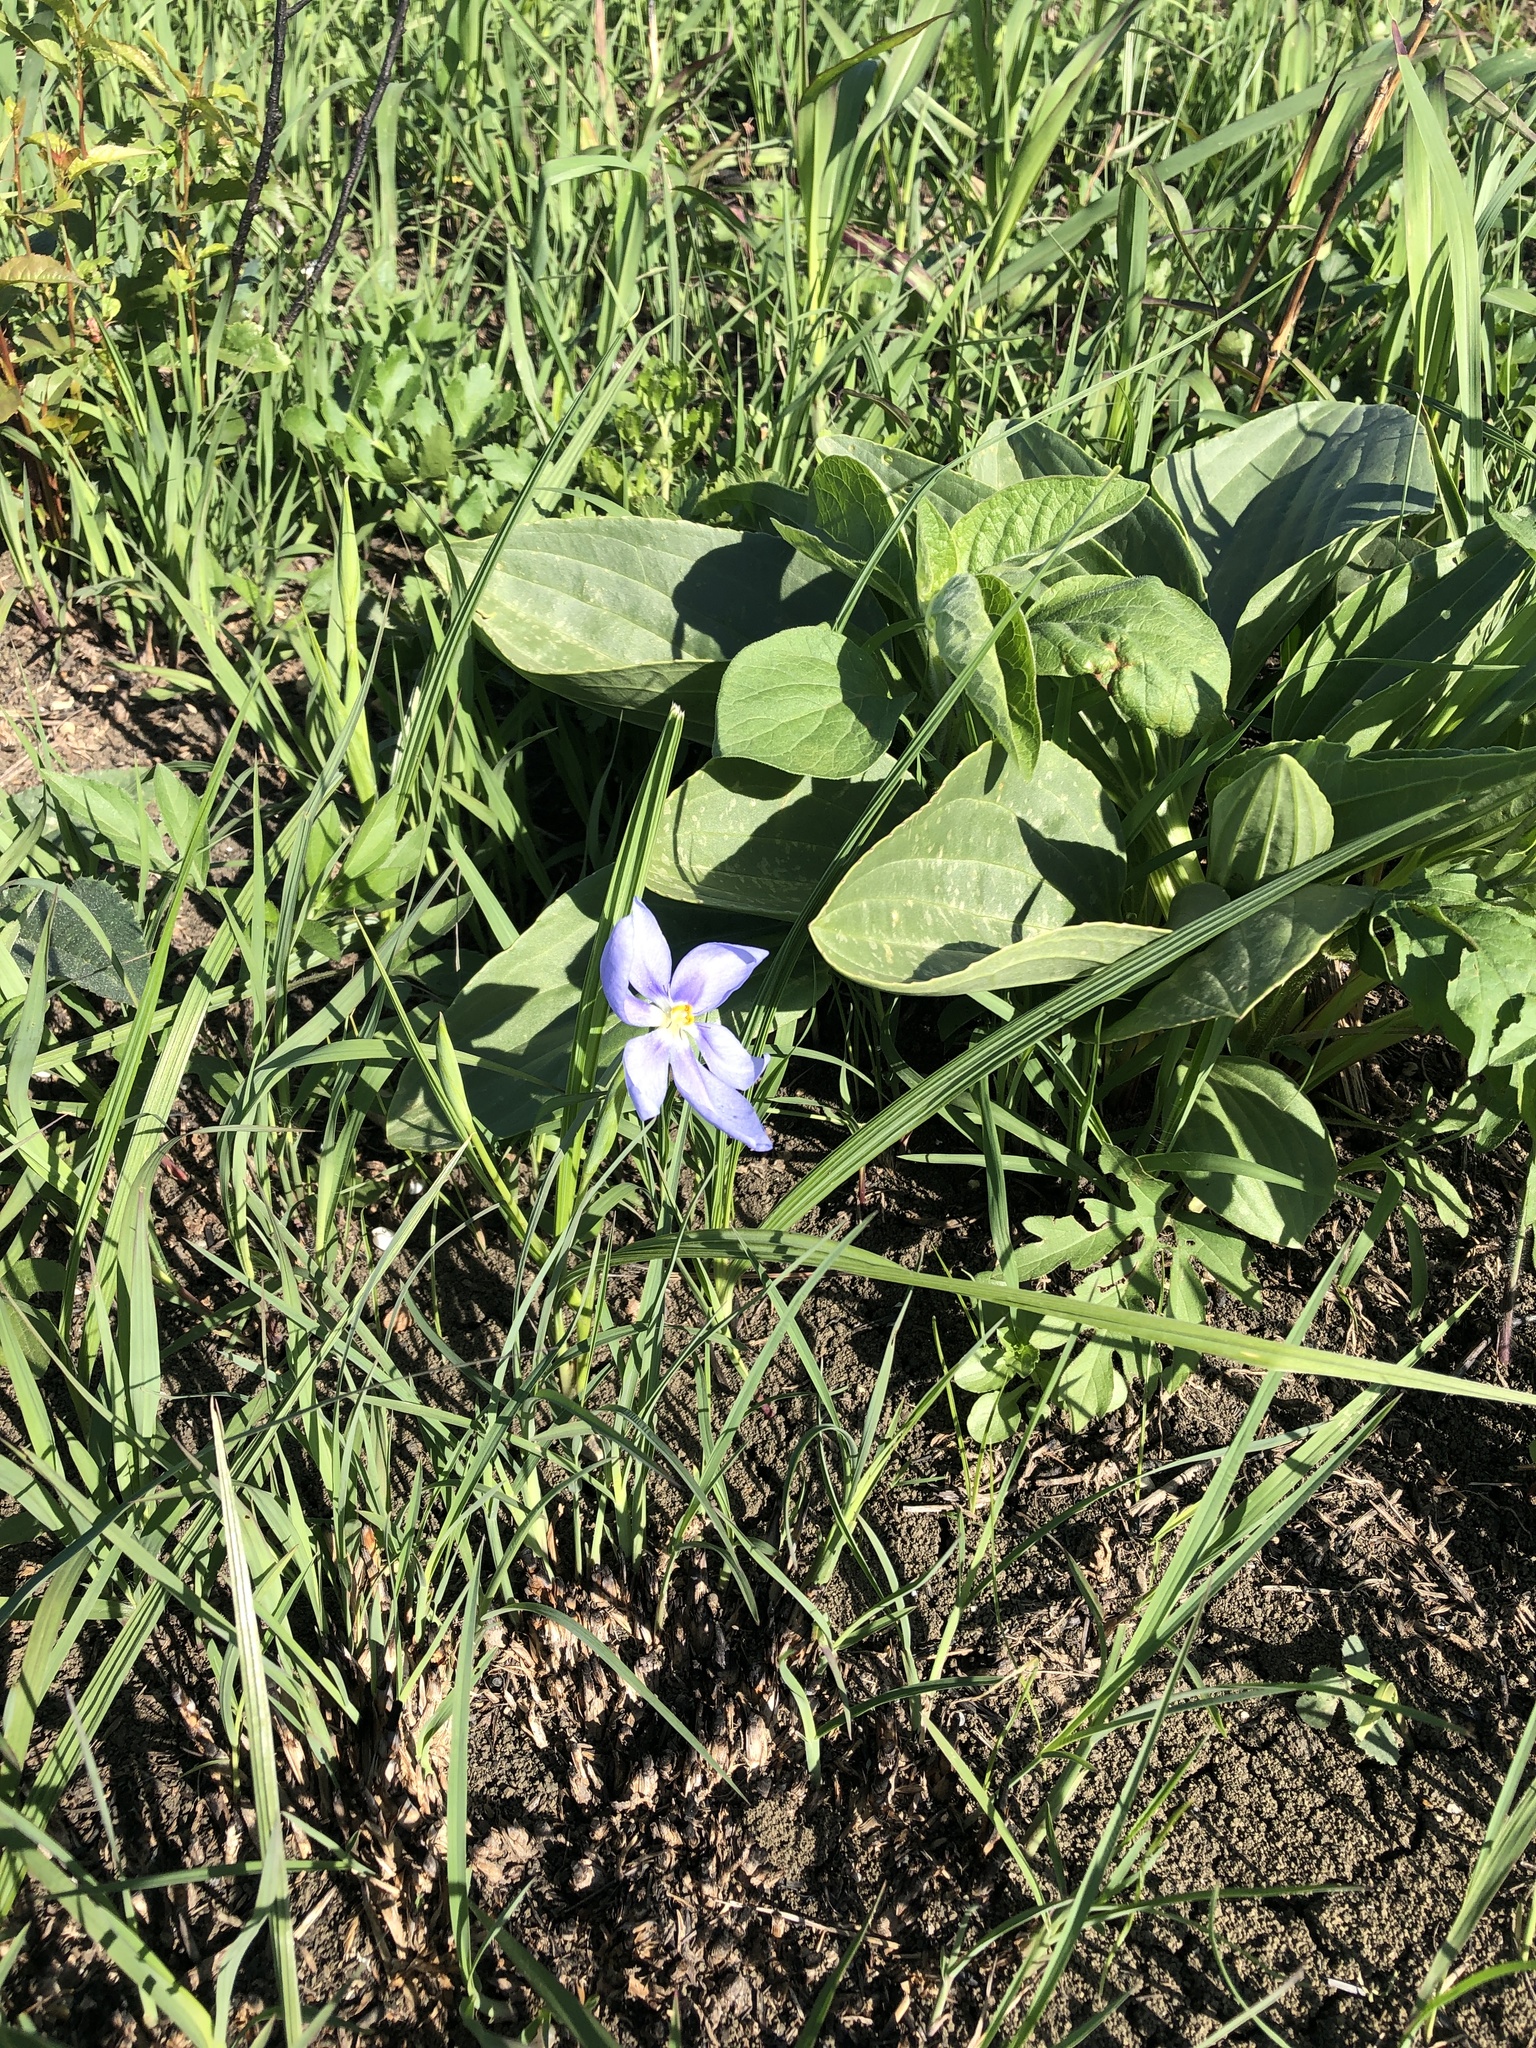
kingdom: Plantae
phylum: Tracheophyta
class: Liliopsida
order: Asparagales
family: Iridaceae
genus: Nemastylis
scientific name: Nemastylis geminiflora
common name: Prairie celestial
